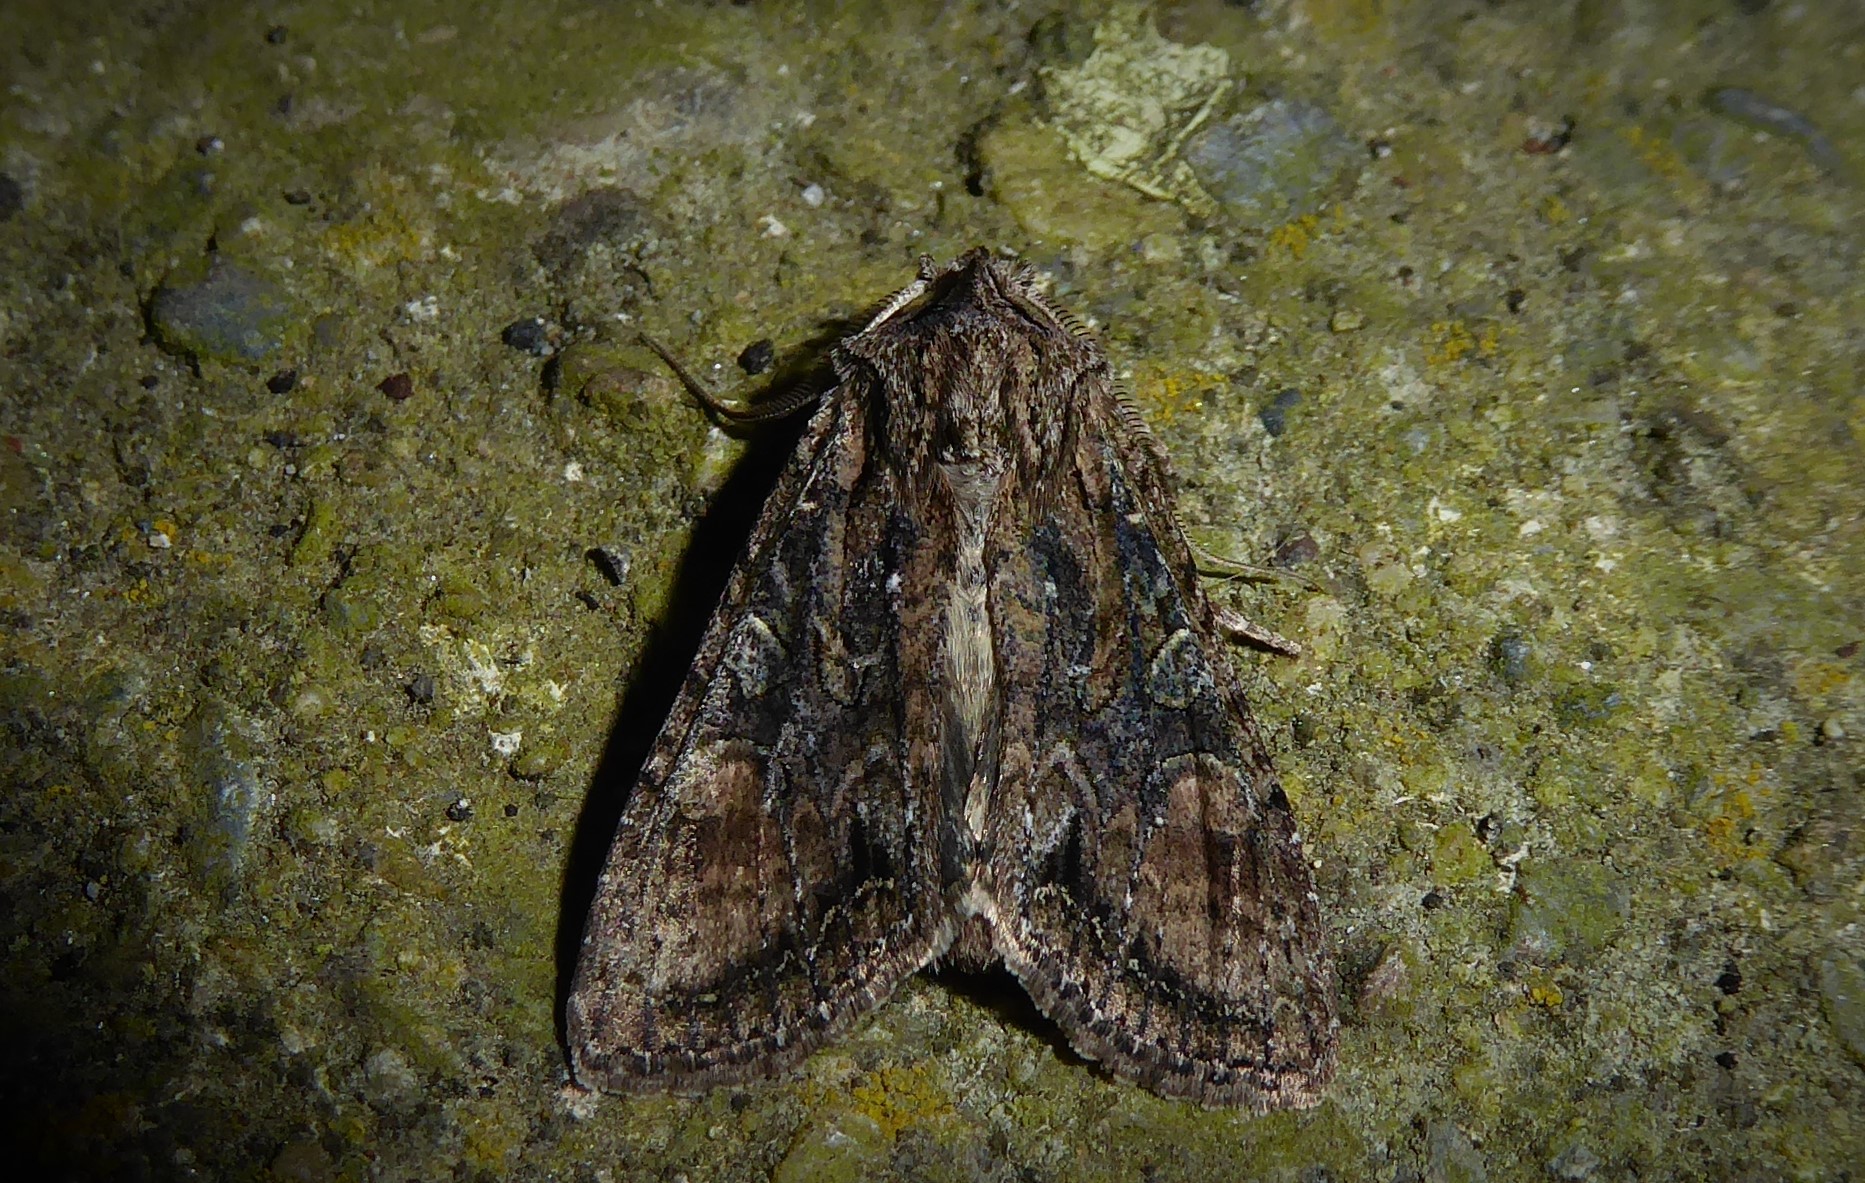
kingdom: Animalia
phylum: Arthropoda
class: Insecta
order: Lepidoptera
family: Noctuidae
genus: Ichneutica
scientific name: Ichneutica mutans
